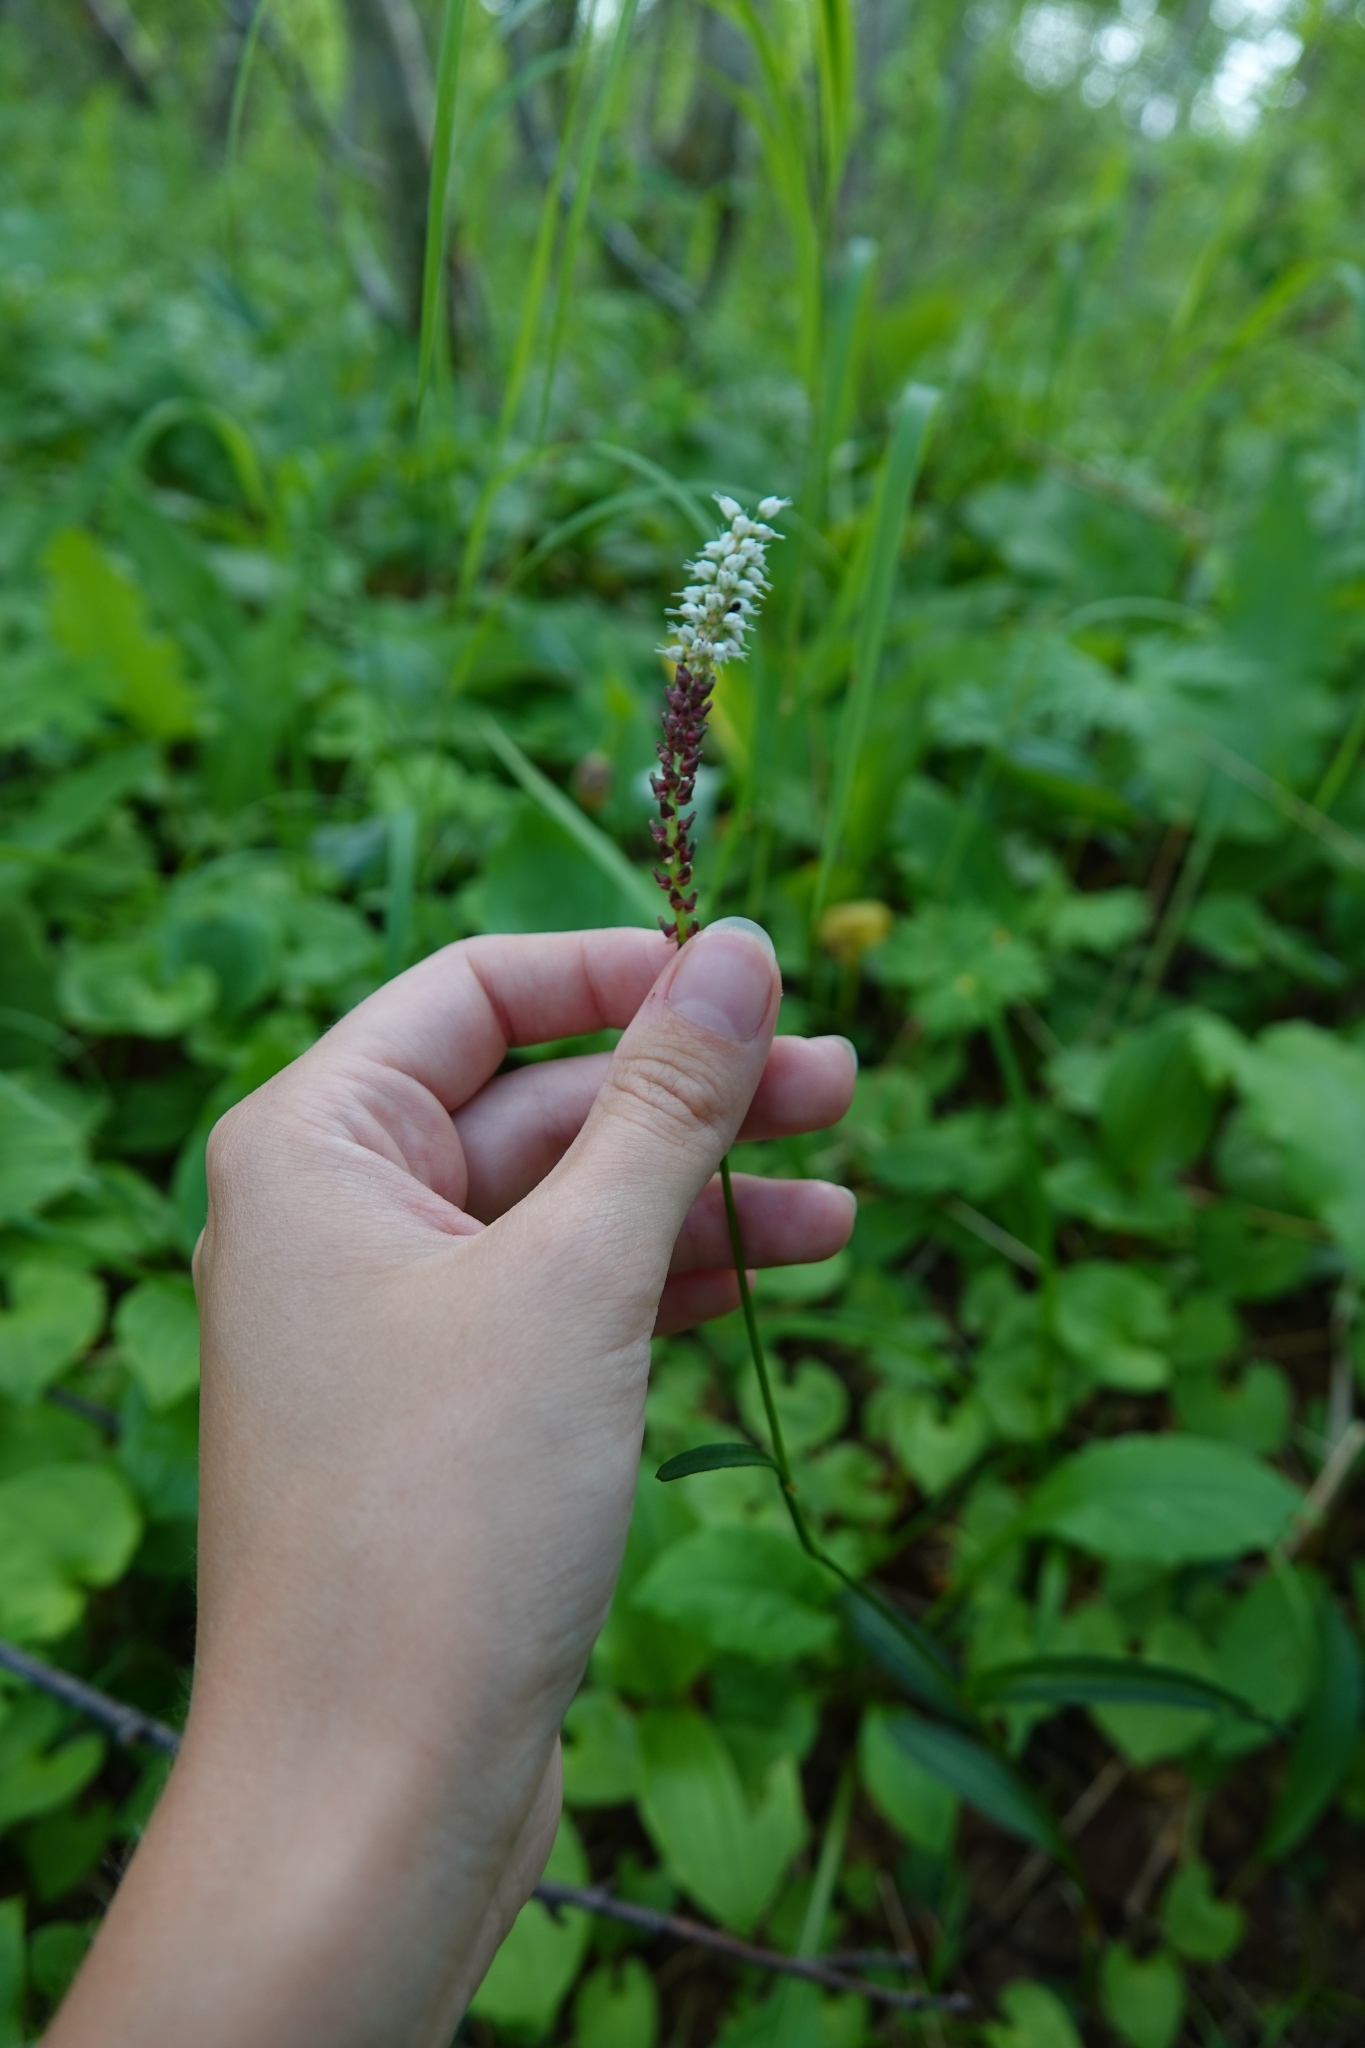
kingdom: Plantae
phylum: Tracheophyta
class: Magnoliopsida
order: Caryophyllales
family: Polygonaceae
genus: Bistorta
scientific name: Bistorta vivipara
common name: Alpine bistort
